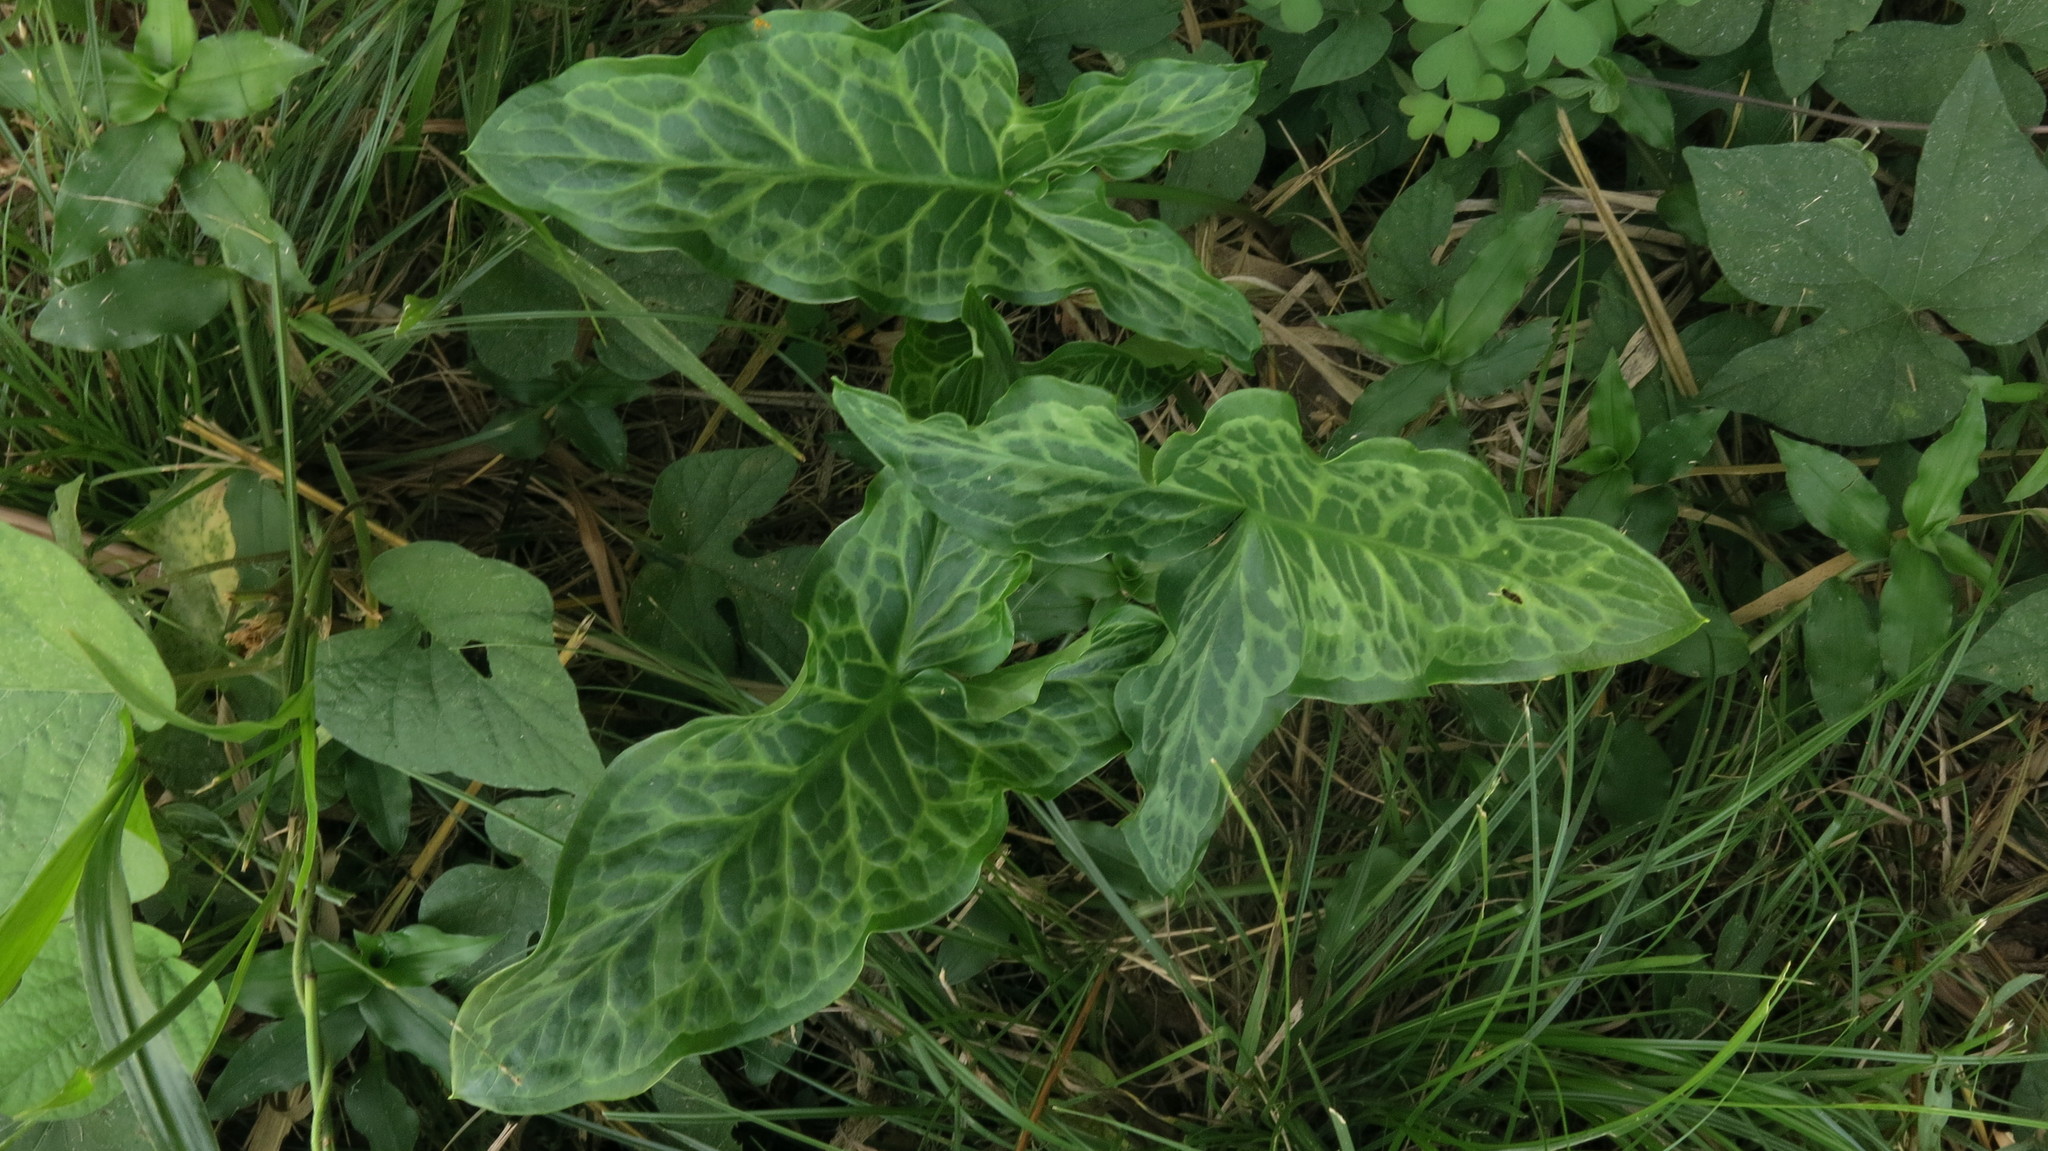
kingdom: Plantae
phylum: Tracheophyta
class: Liliopsida
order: Alismatales
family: Araceae
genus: Arum
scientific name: Arum italicum
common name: Italian lords-and-ladies
